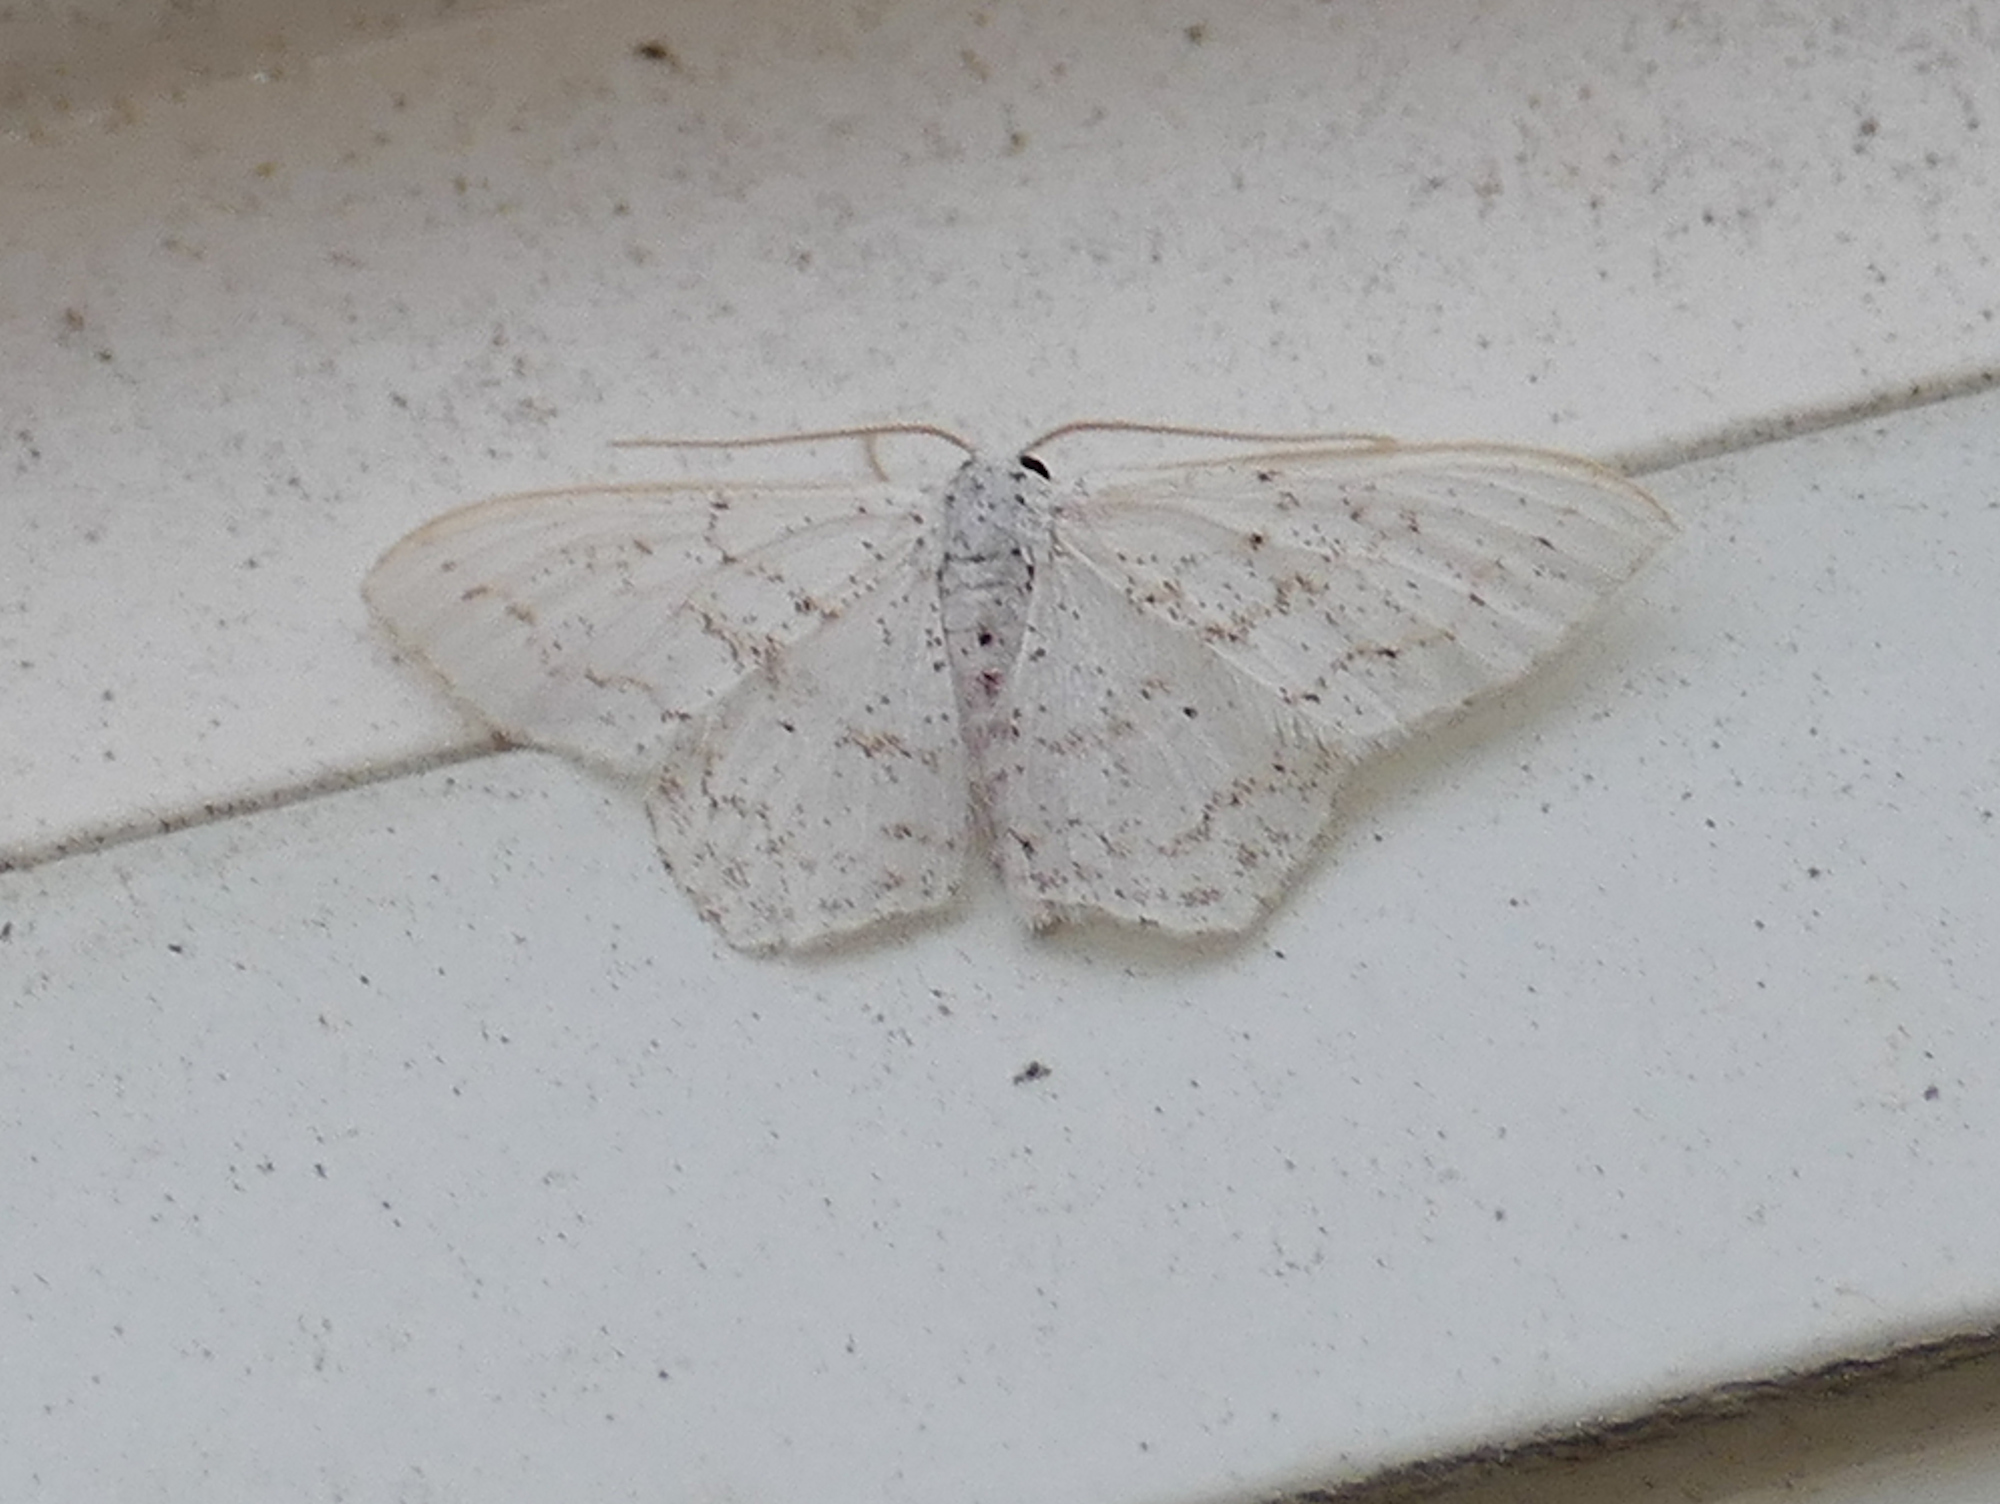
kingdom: Animalia
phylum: Arthropoda
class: Insecta
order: Lepidoptera
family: Geometridae
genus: Idaea
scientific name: Idaea tacturata
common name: Dot-lined wave
